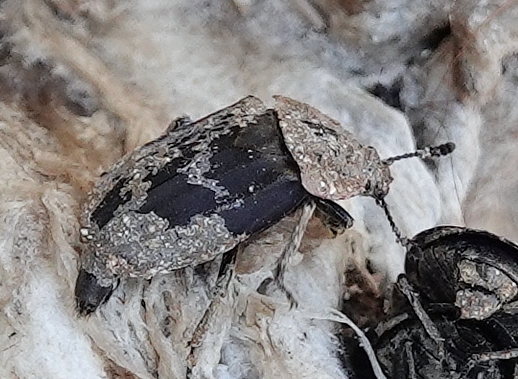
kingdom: Animalia
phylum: Arthropoda
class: Insecta
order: Coleoptera
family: Staphylinidae
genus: Oiceoptoma
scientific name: Oiceoptoma noveboracense
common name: Margined carrion beetle
